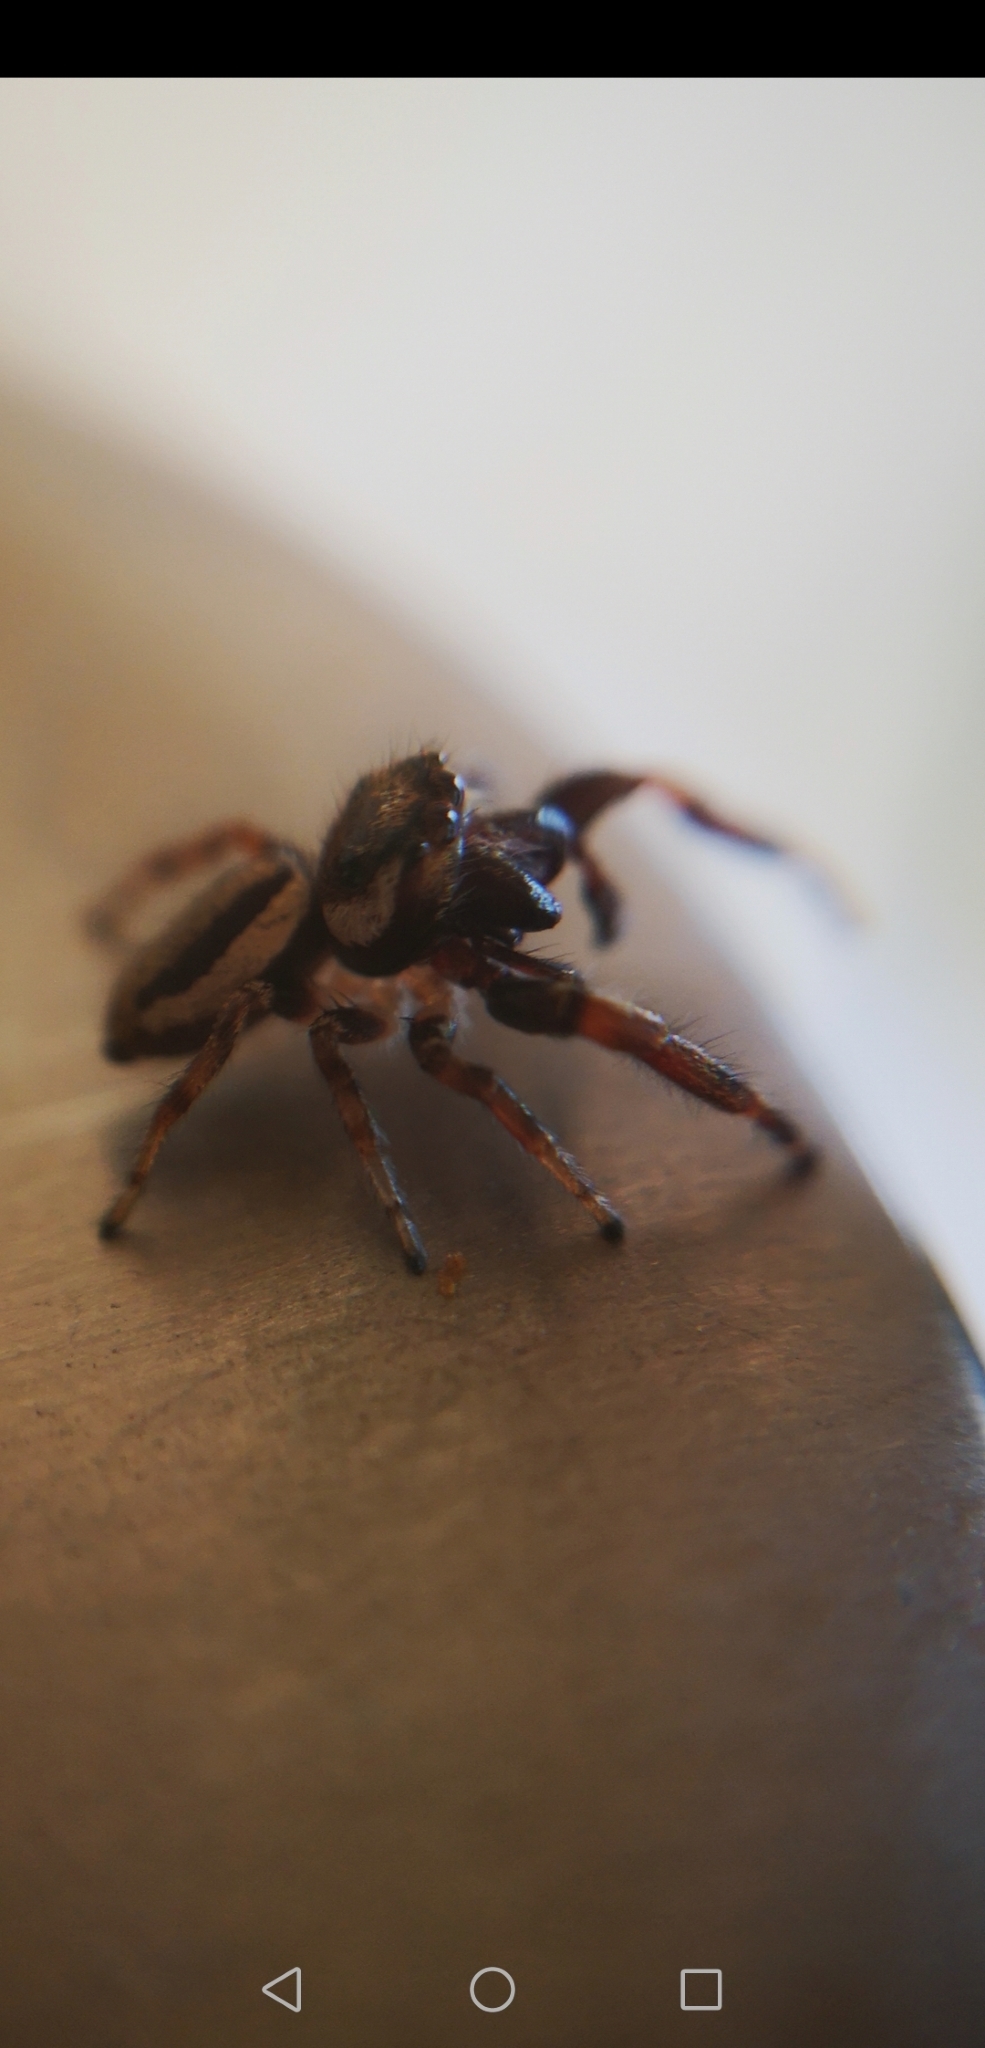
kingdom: Animalia
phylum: Arthropoda
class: Arachnida
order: Araneae
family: Salticidae
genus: Eris
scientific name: Eris militaris
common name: Bronze jumper
